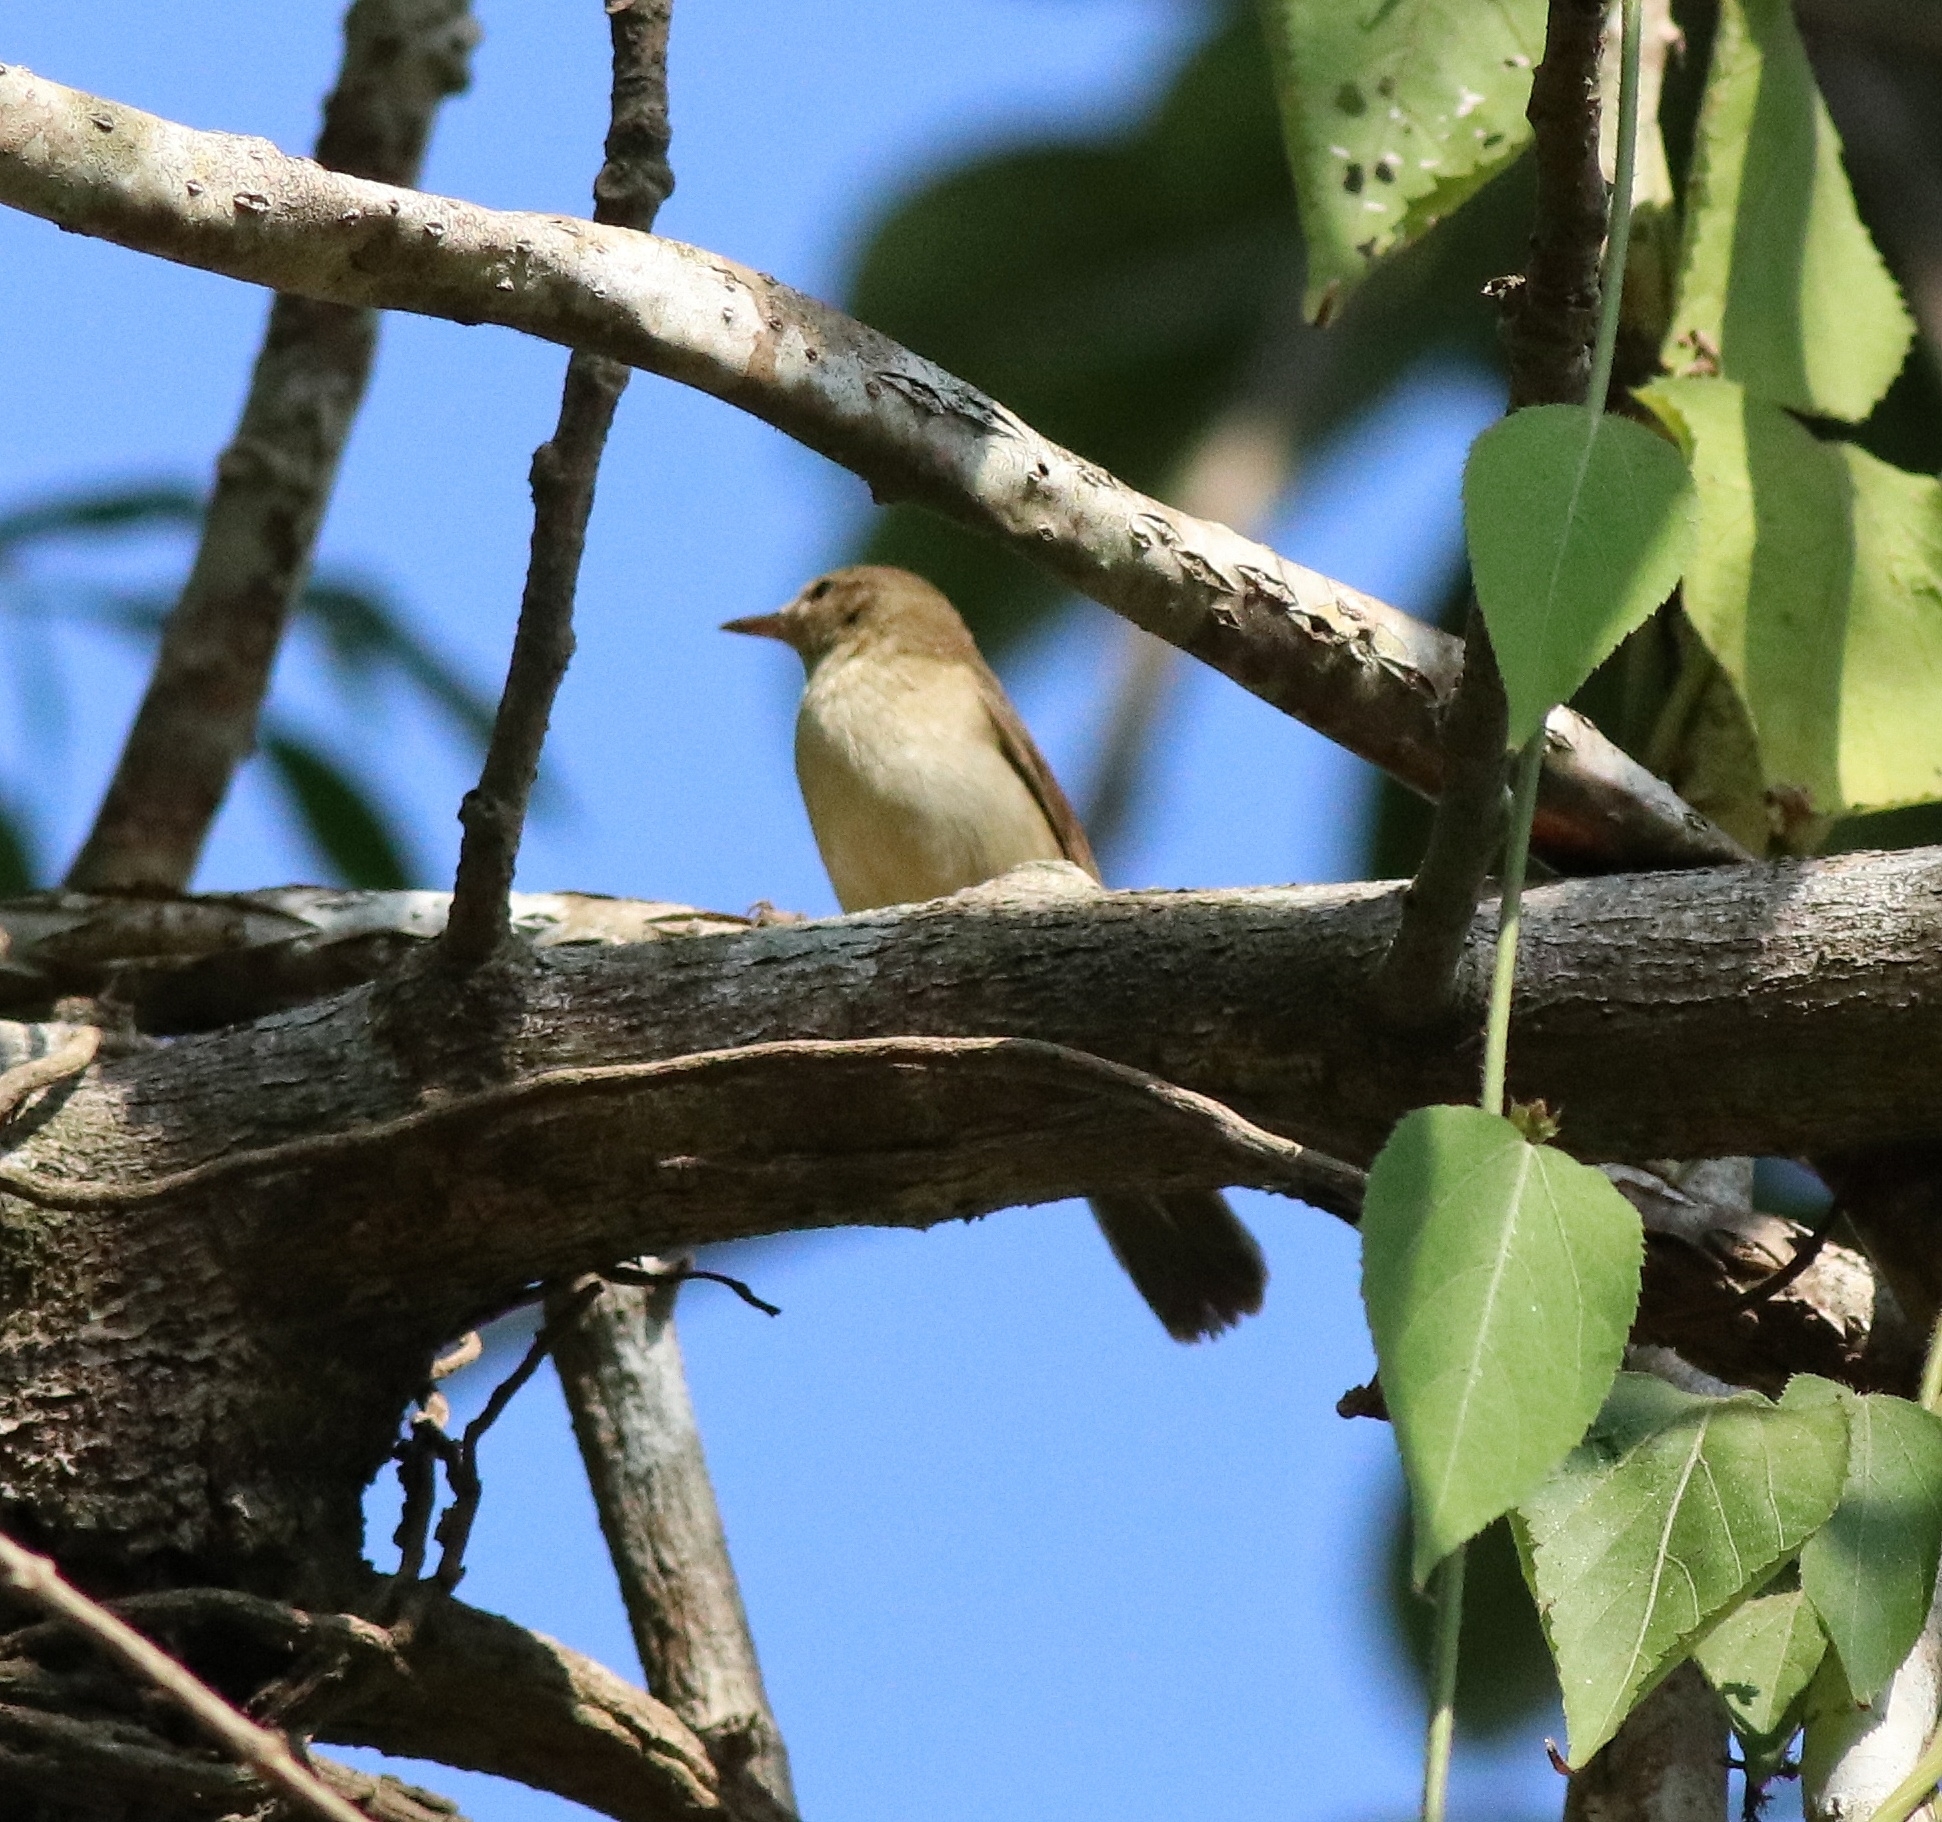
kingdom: Animalia
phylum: Chordata
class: Aves
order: Passeriformes
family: Acrocephalidae
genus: Acrocephalus
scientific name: Acrocephalus dumetorum
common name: Blyth's reed warbler
